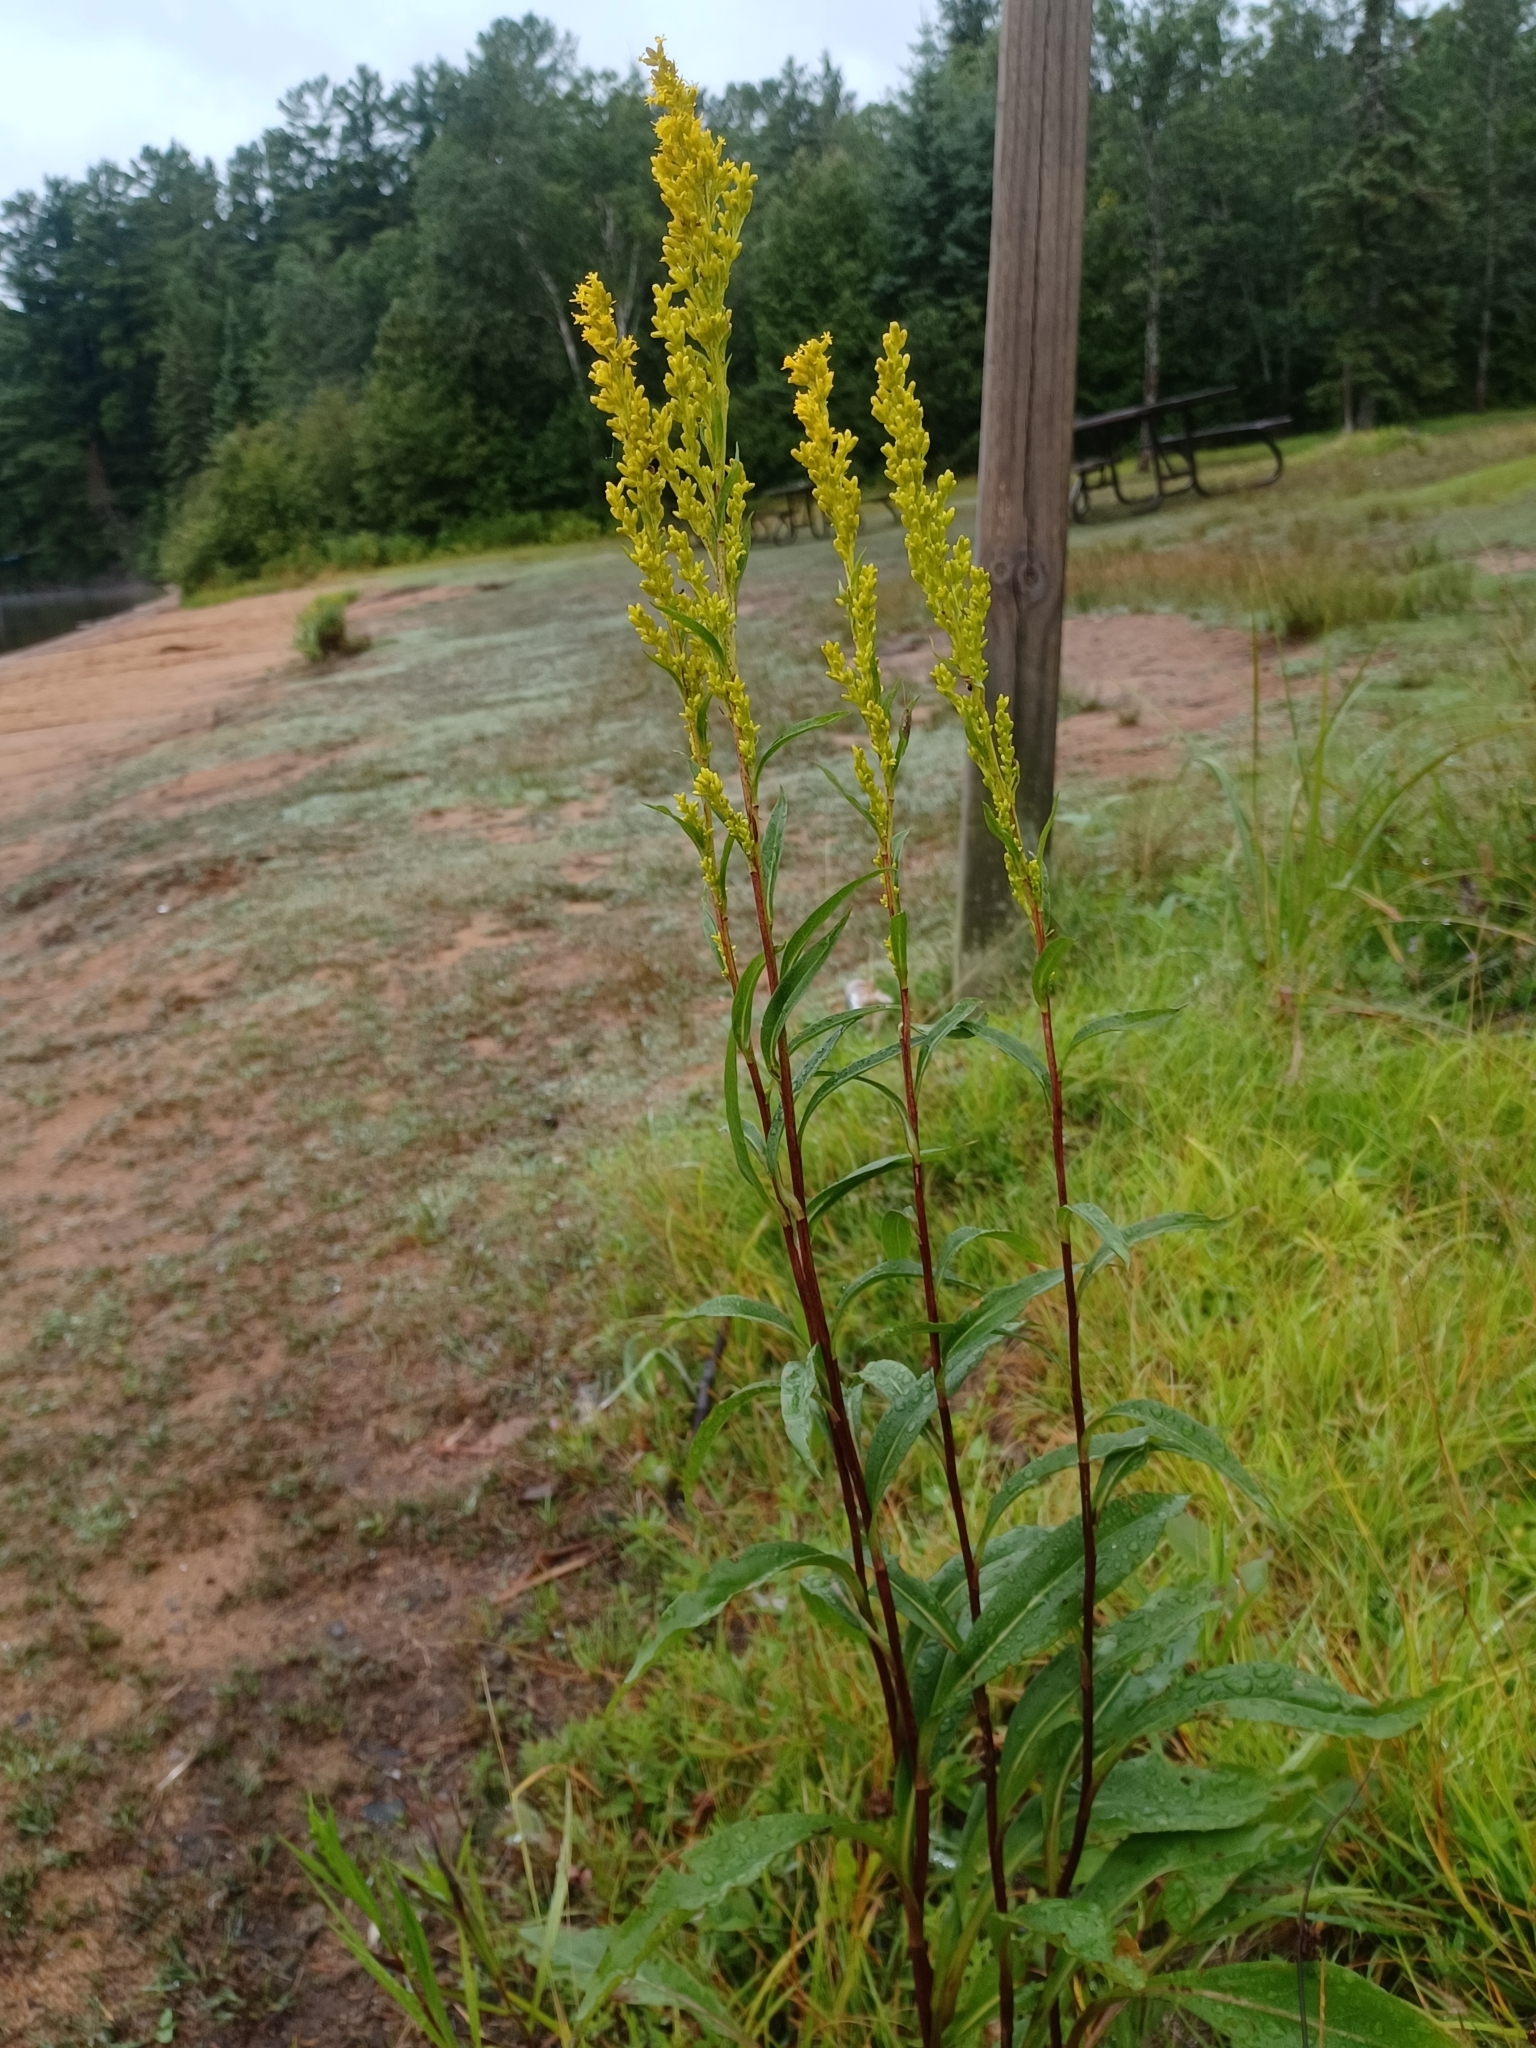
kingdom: Plantae
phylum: Tracheophyta
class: Magnoliopsida
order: Asterales
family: Asteraceae
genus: Solidago
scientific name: Solidago uliginosa
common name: Bog goldenrod
